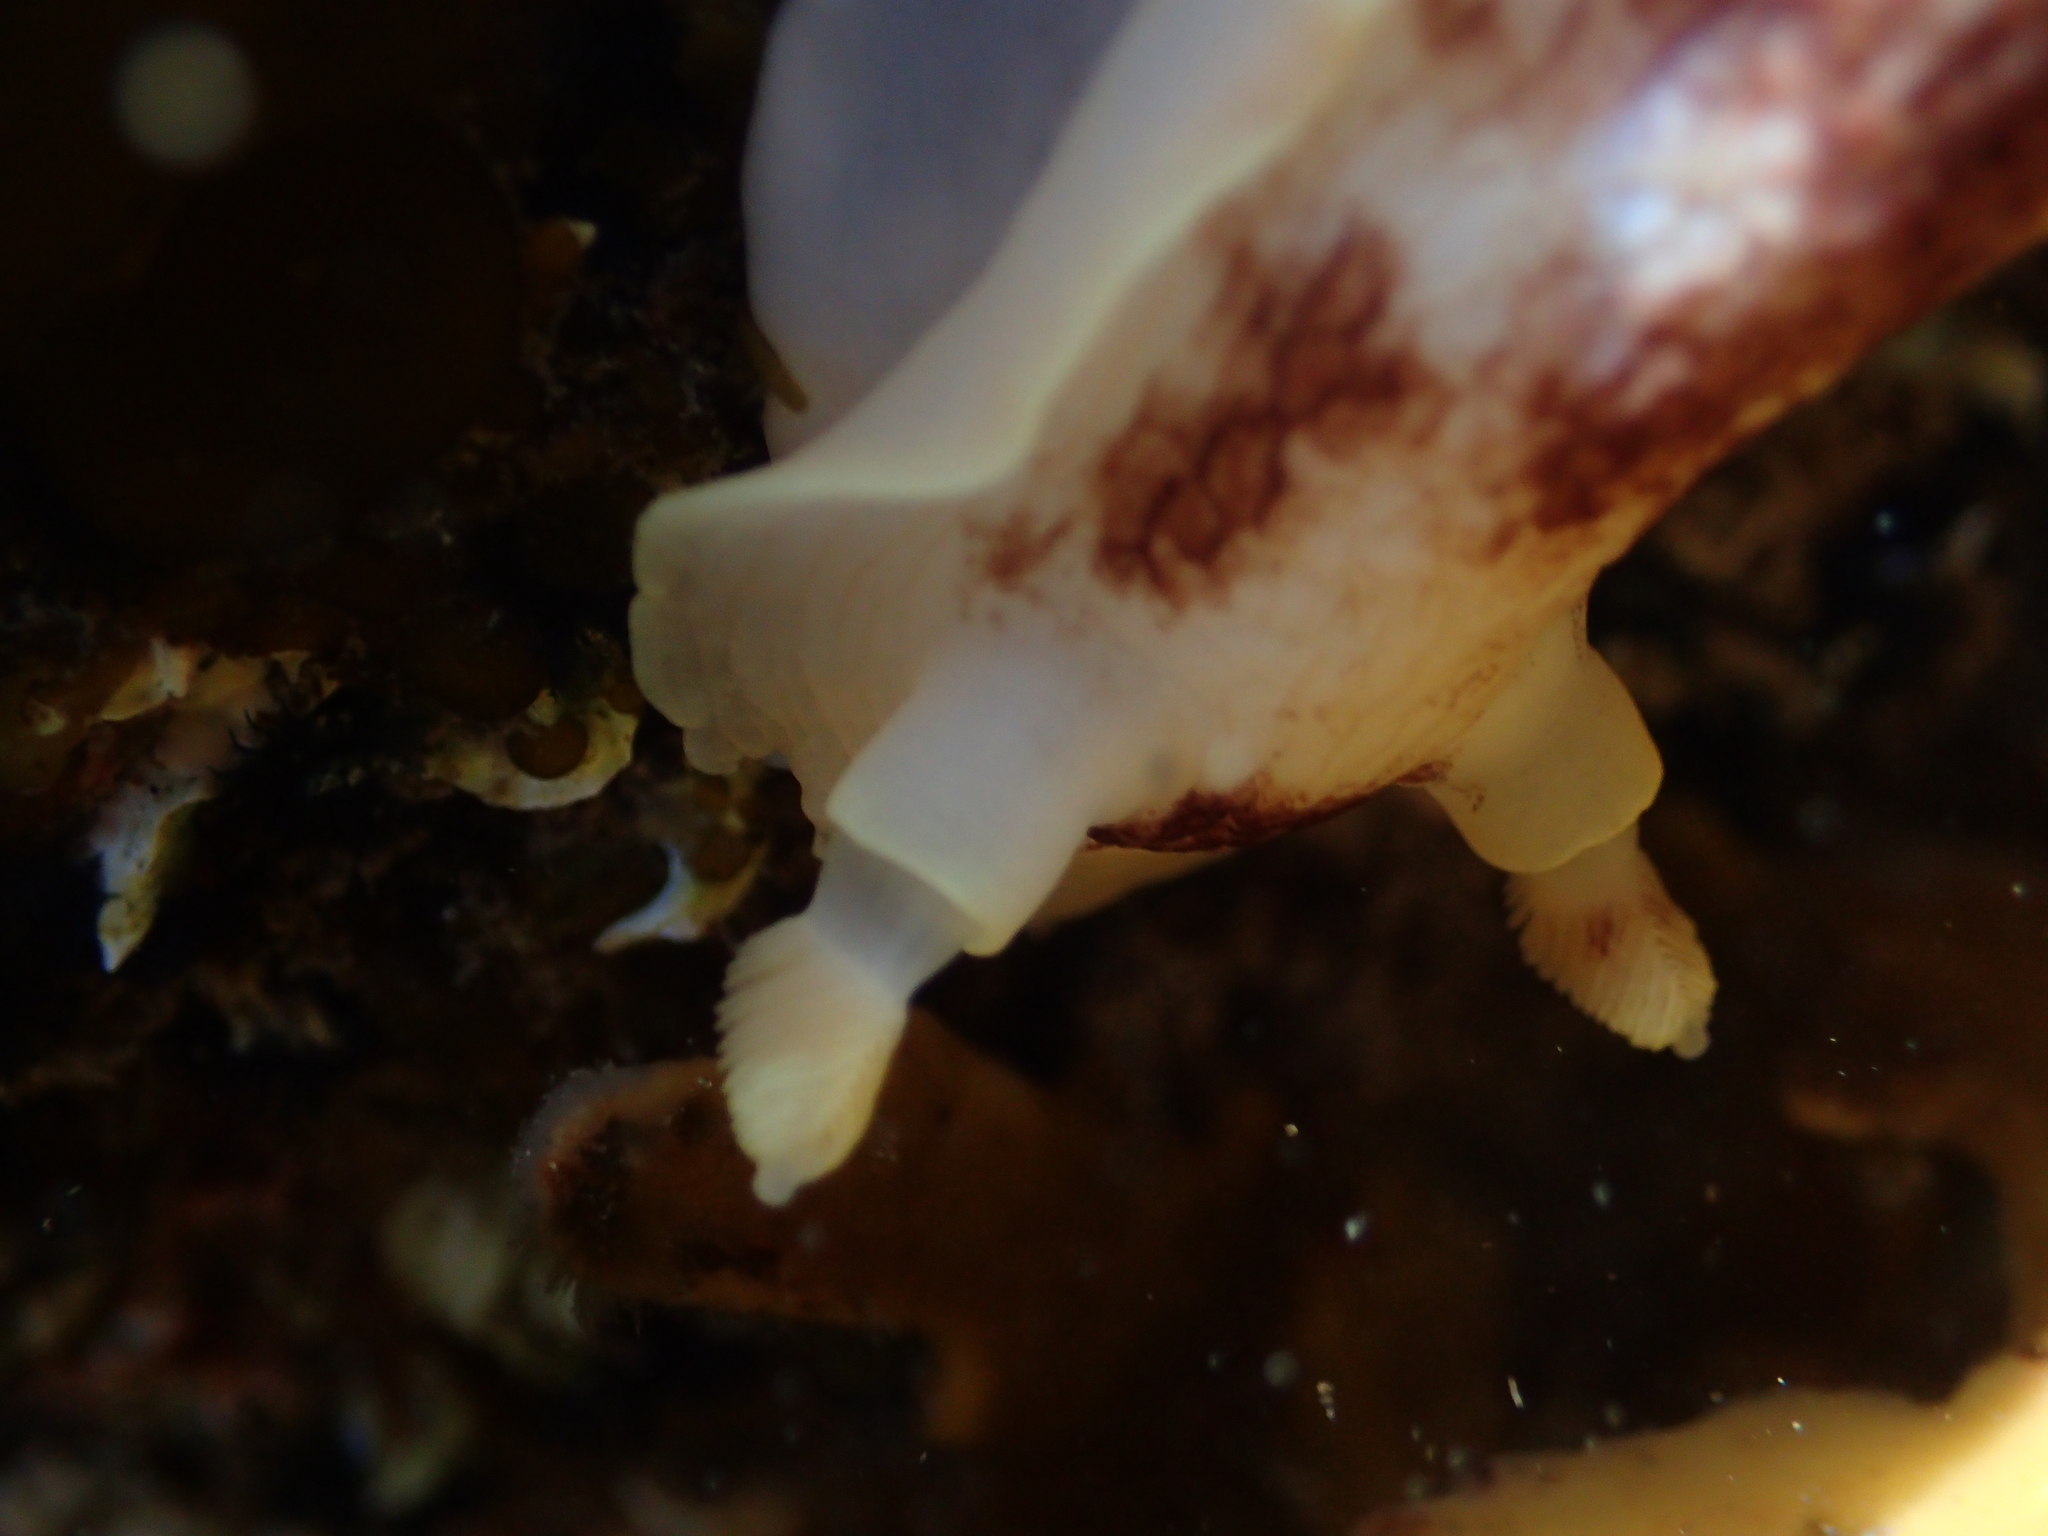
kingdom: Animalia
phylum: Mollusca
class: Gastropoda
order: Nudibranchia
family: Dorididae
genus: Aphelodoris
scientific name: Aphelodoris luctuosa
